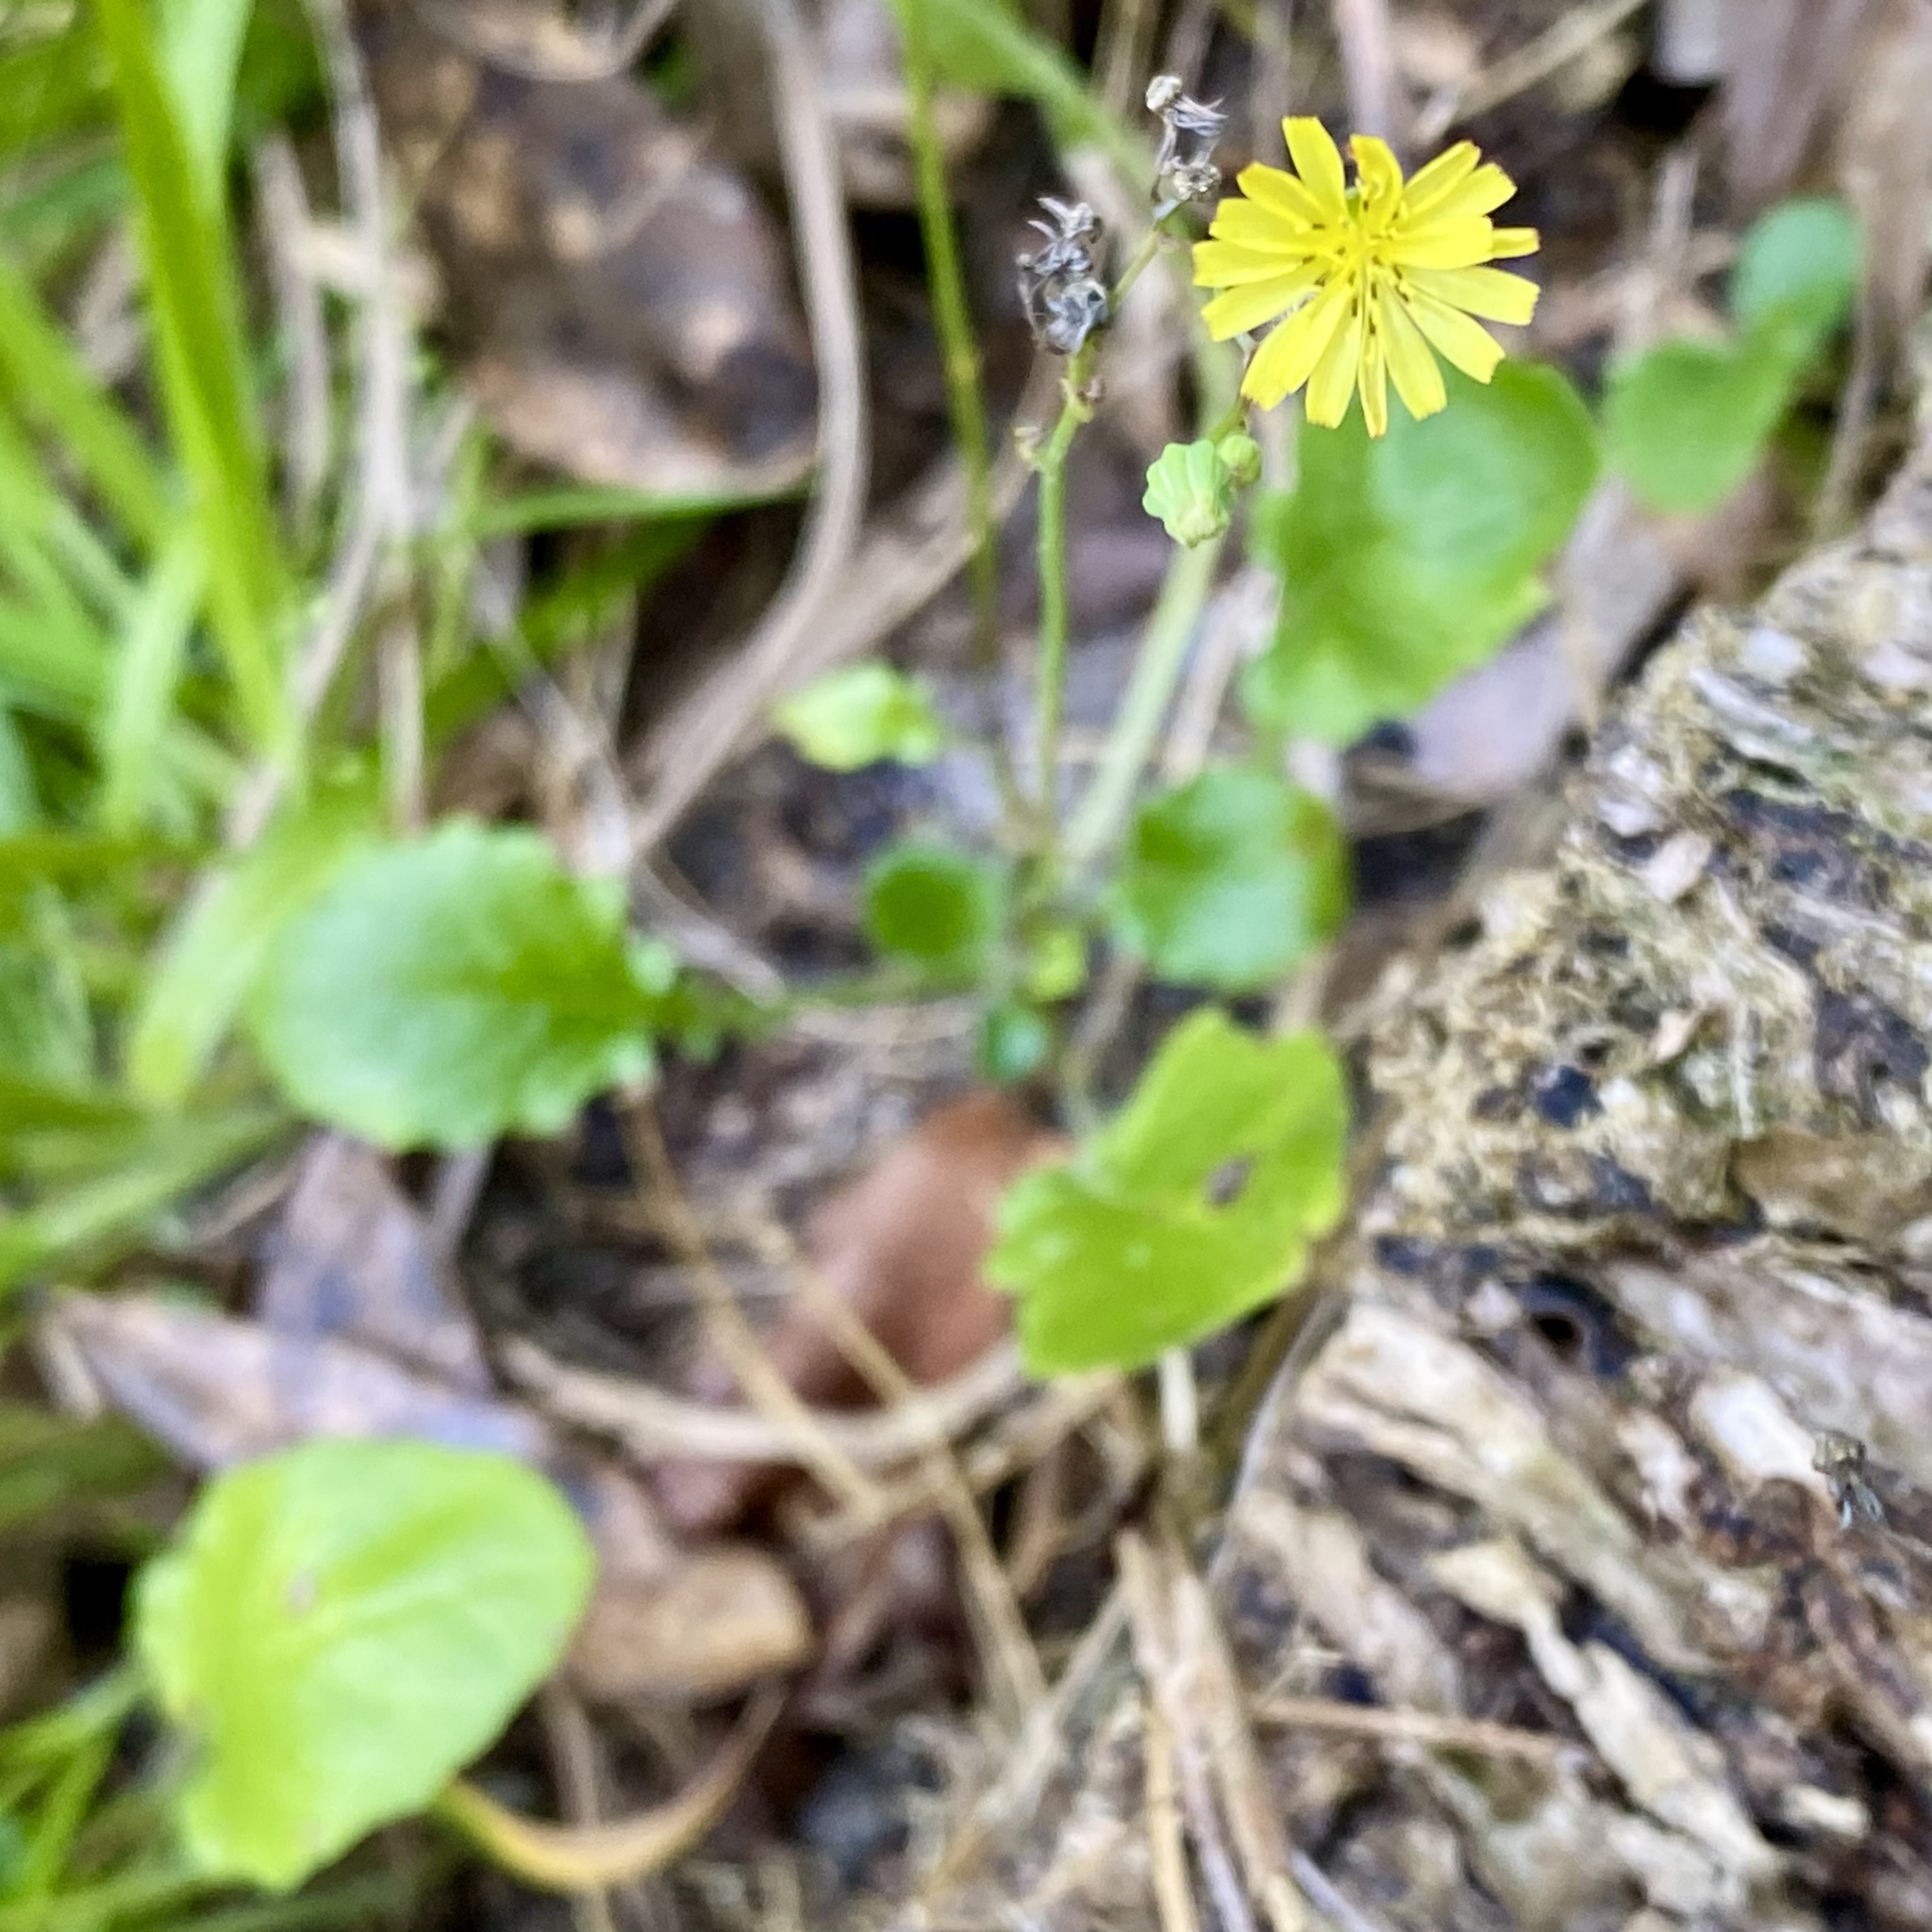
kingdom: Plantae
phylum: Tracheophyta
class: Magnoliopsida
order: Asterales
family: Asteraceae
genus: Youngia
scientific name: Youngia japonica
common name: Oriental false hawksbeard
